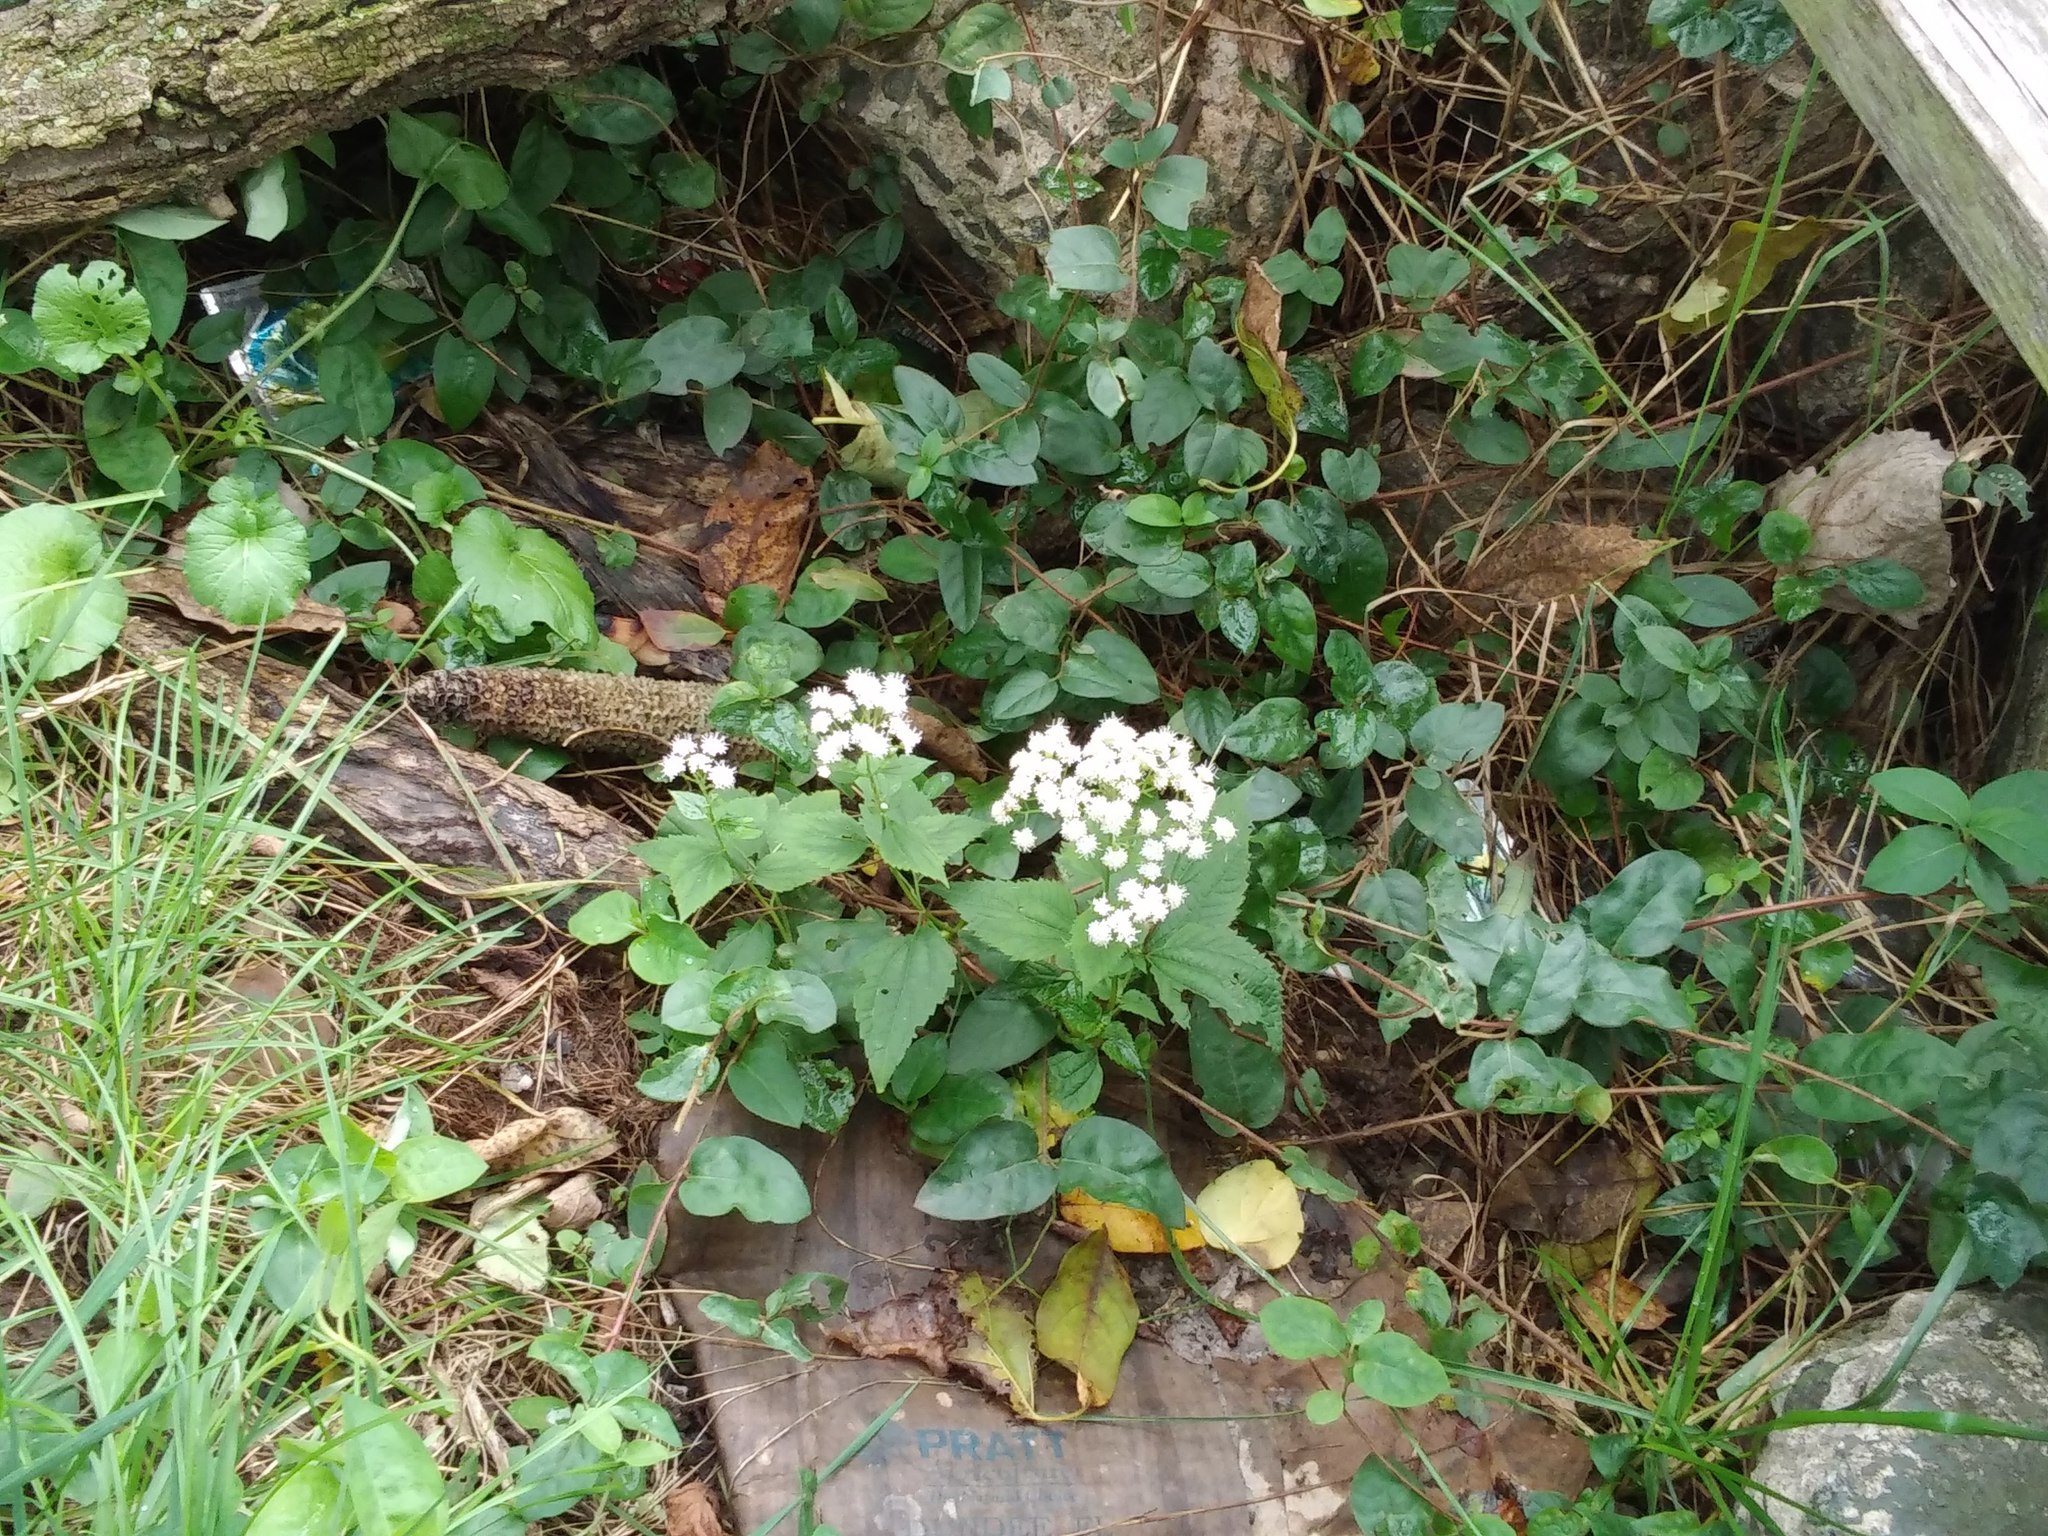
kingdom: Plantae
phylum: Tracheophyta
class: Magnoliopsida
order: Asterales
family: Asteraceae
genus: Ageratina
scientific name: Ageratina altissima
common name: White snakeroot
